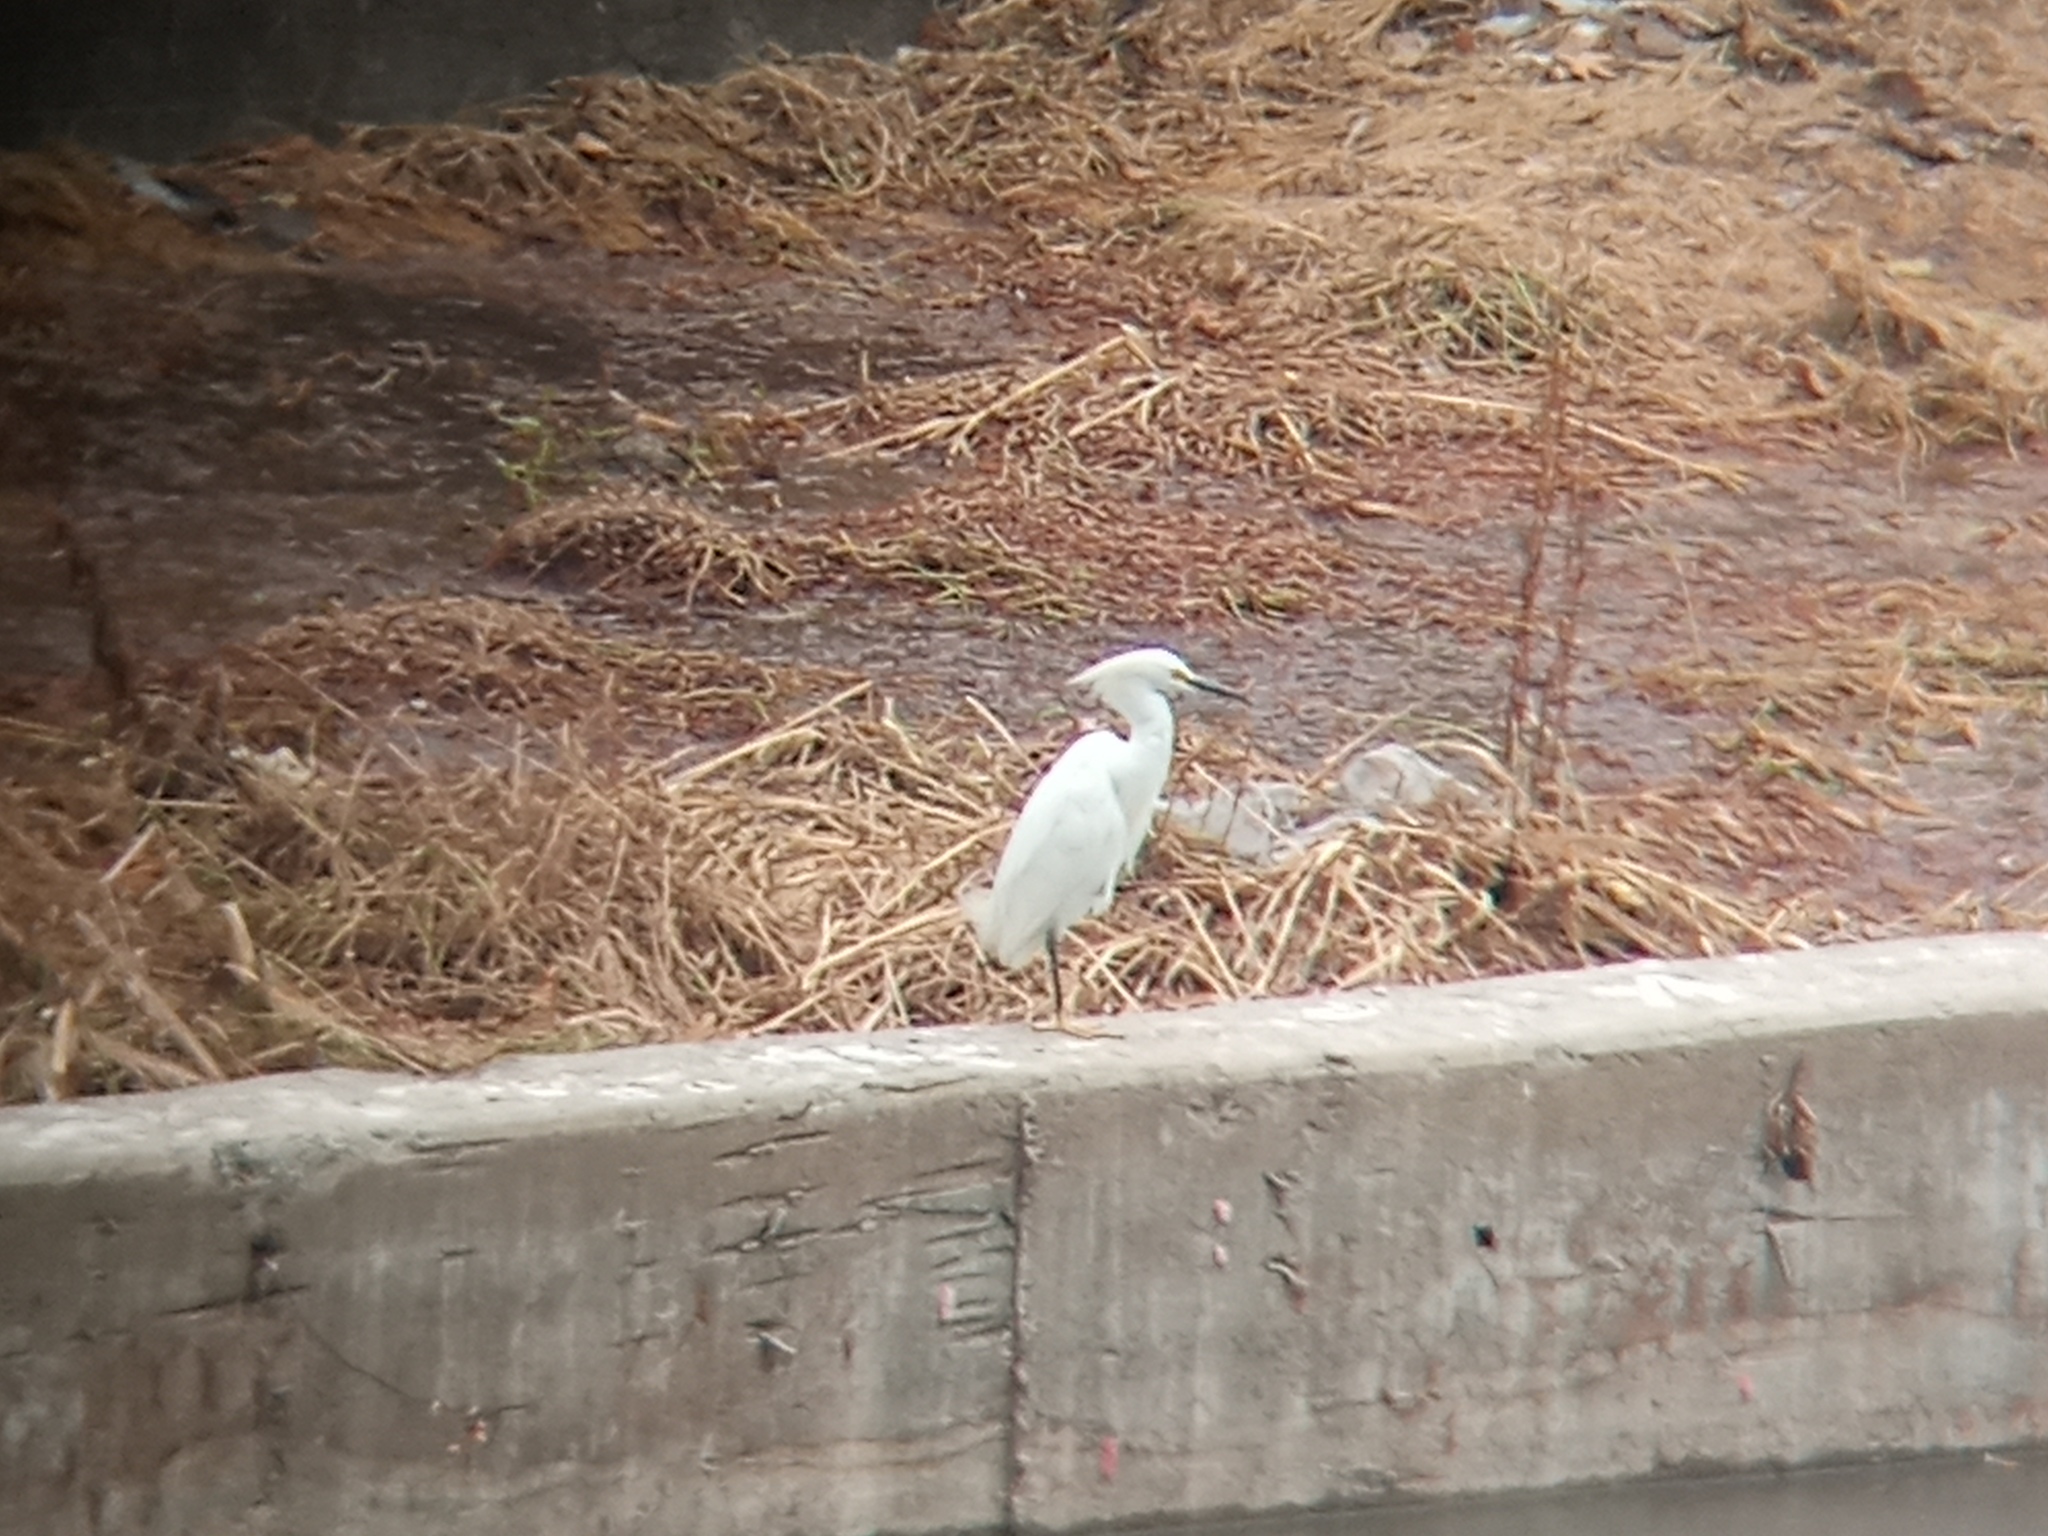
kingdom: Animalia
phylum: Chordata
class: Aves
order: Pelecaniformes
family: Ardeidae
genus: Egretta
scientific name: Egretta thula
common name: Snowy egret
